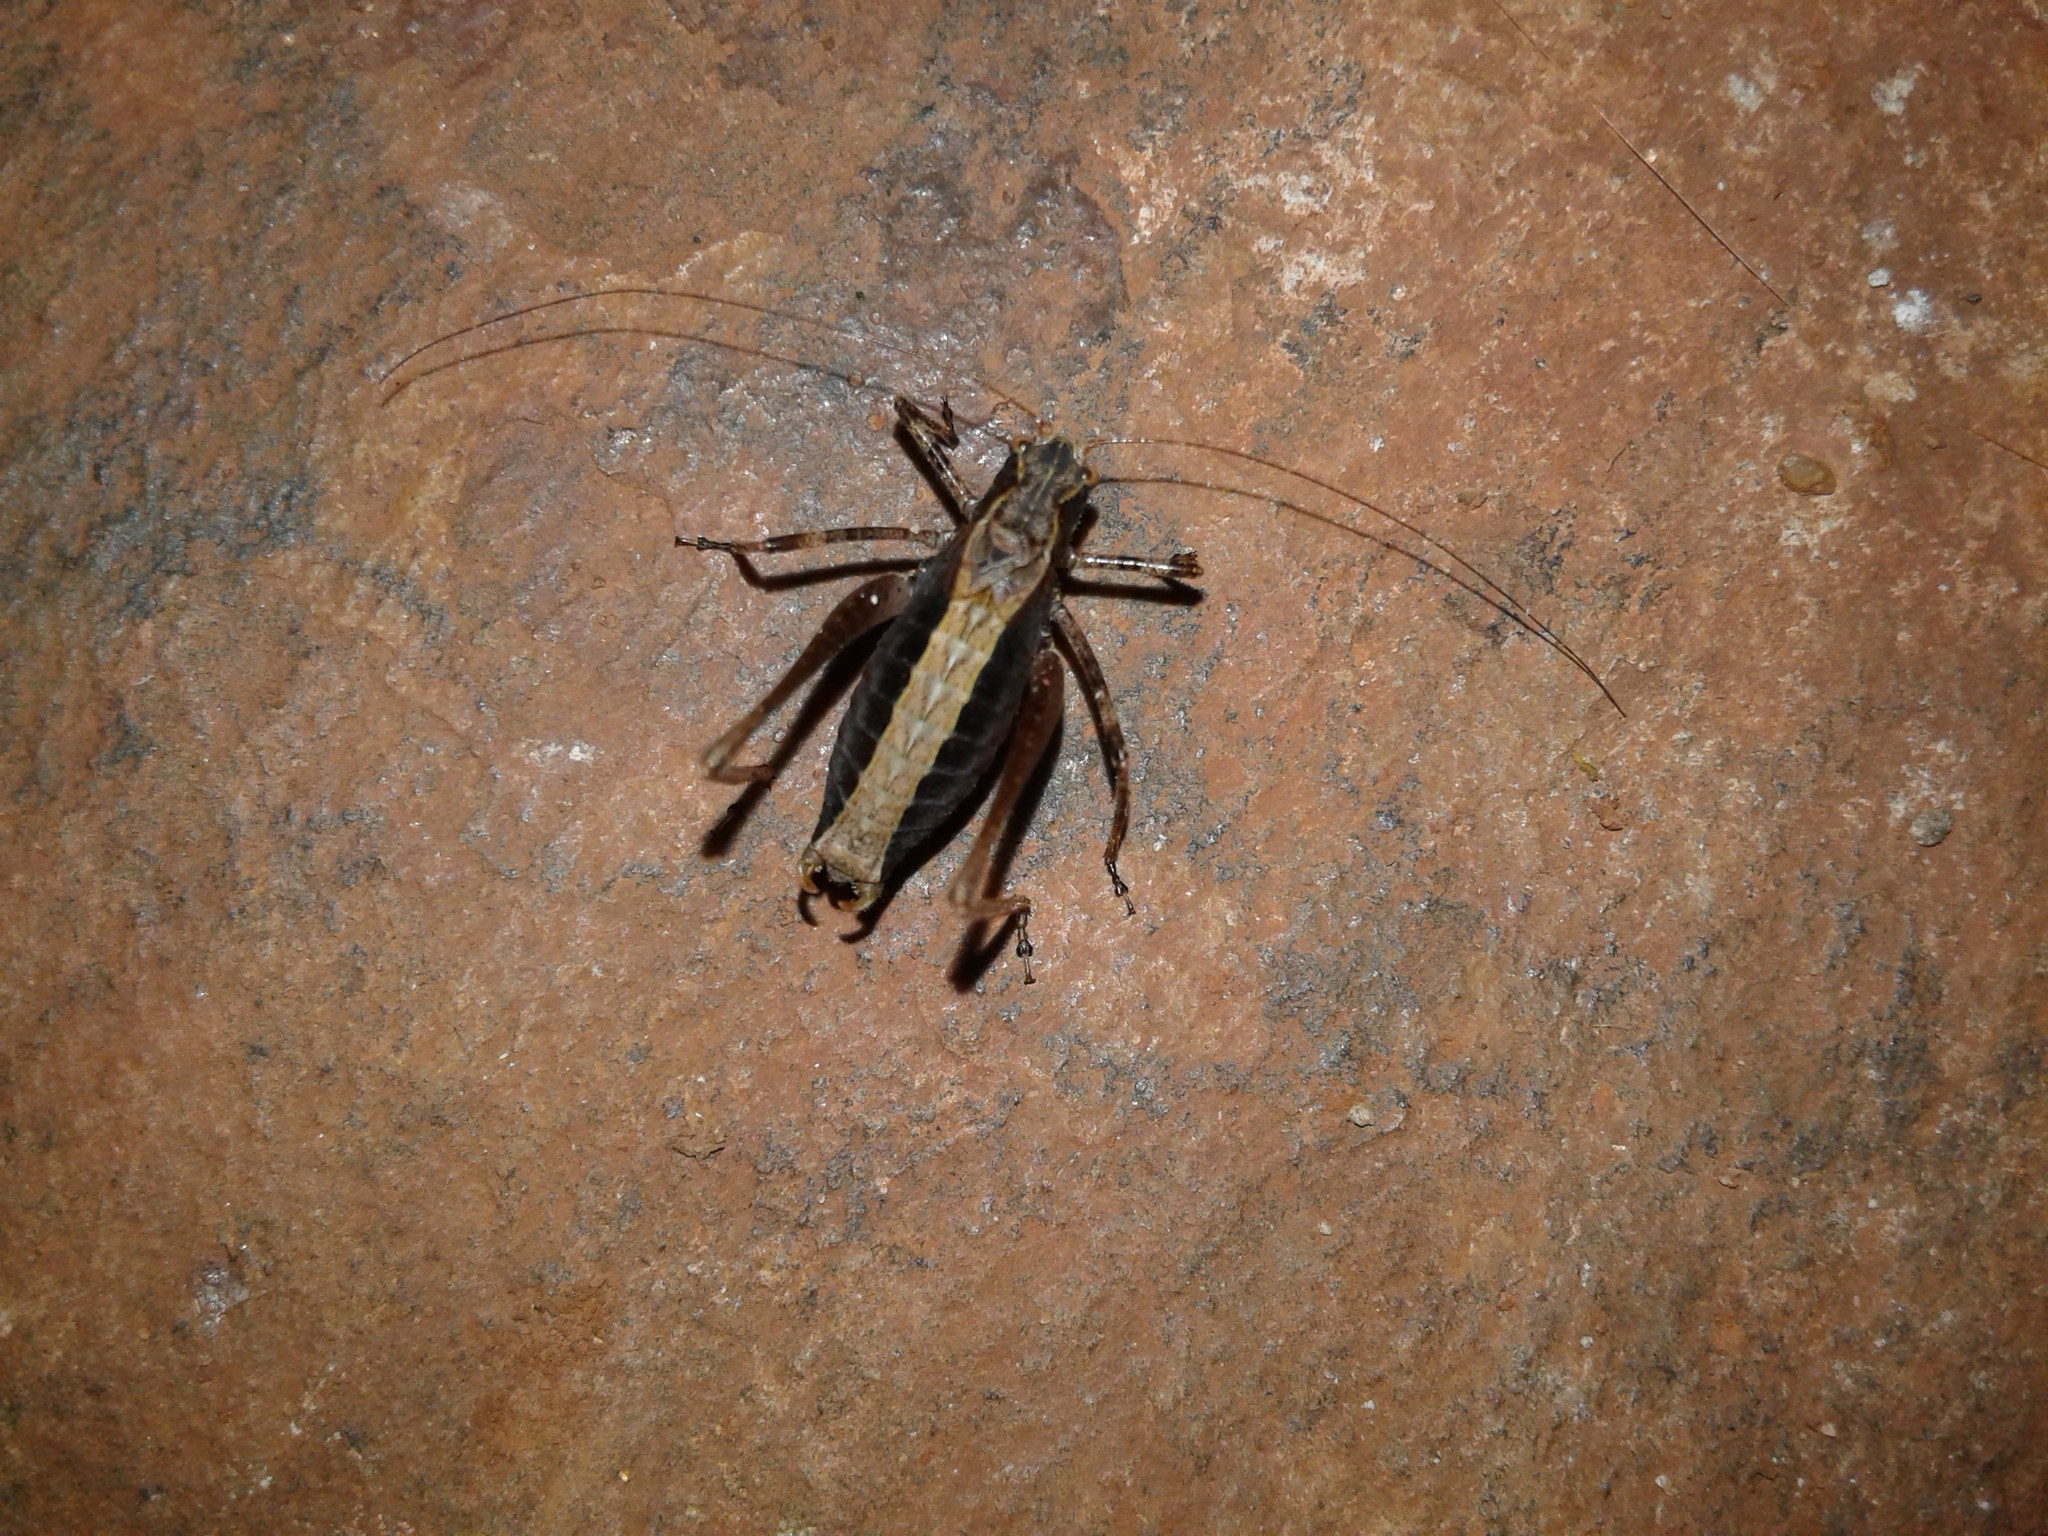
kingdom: Animalia
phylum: Arthropoda
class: Insecta
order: Orthoptera
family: Tettigoniidae
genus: Anisophya
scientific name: Anisophya una
